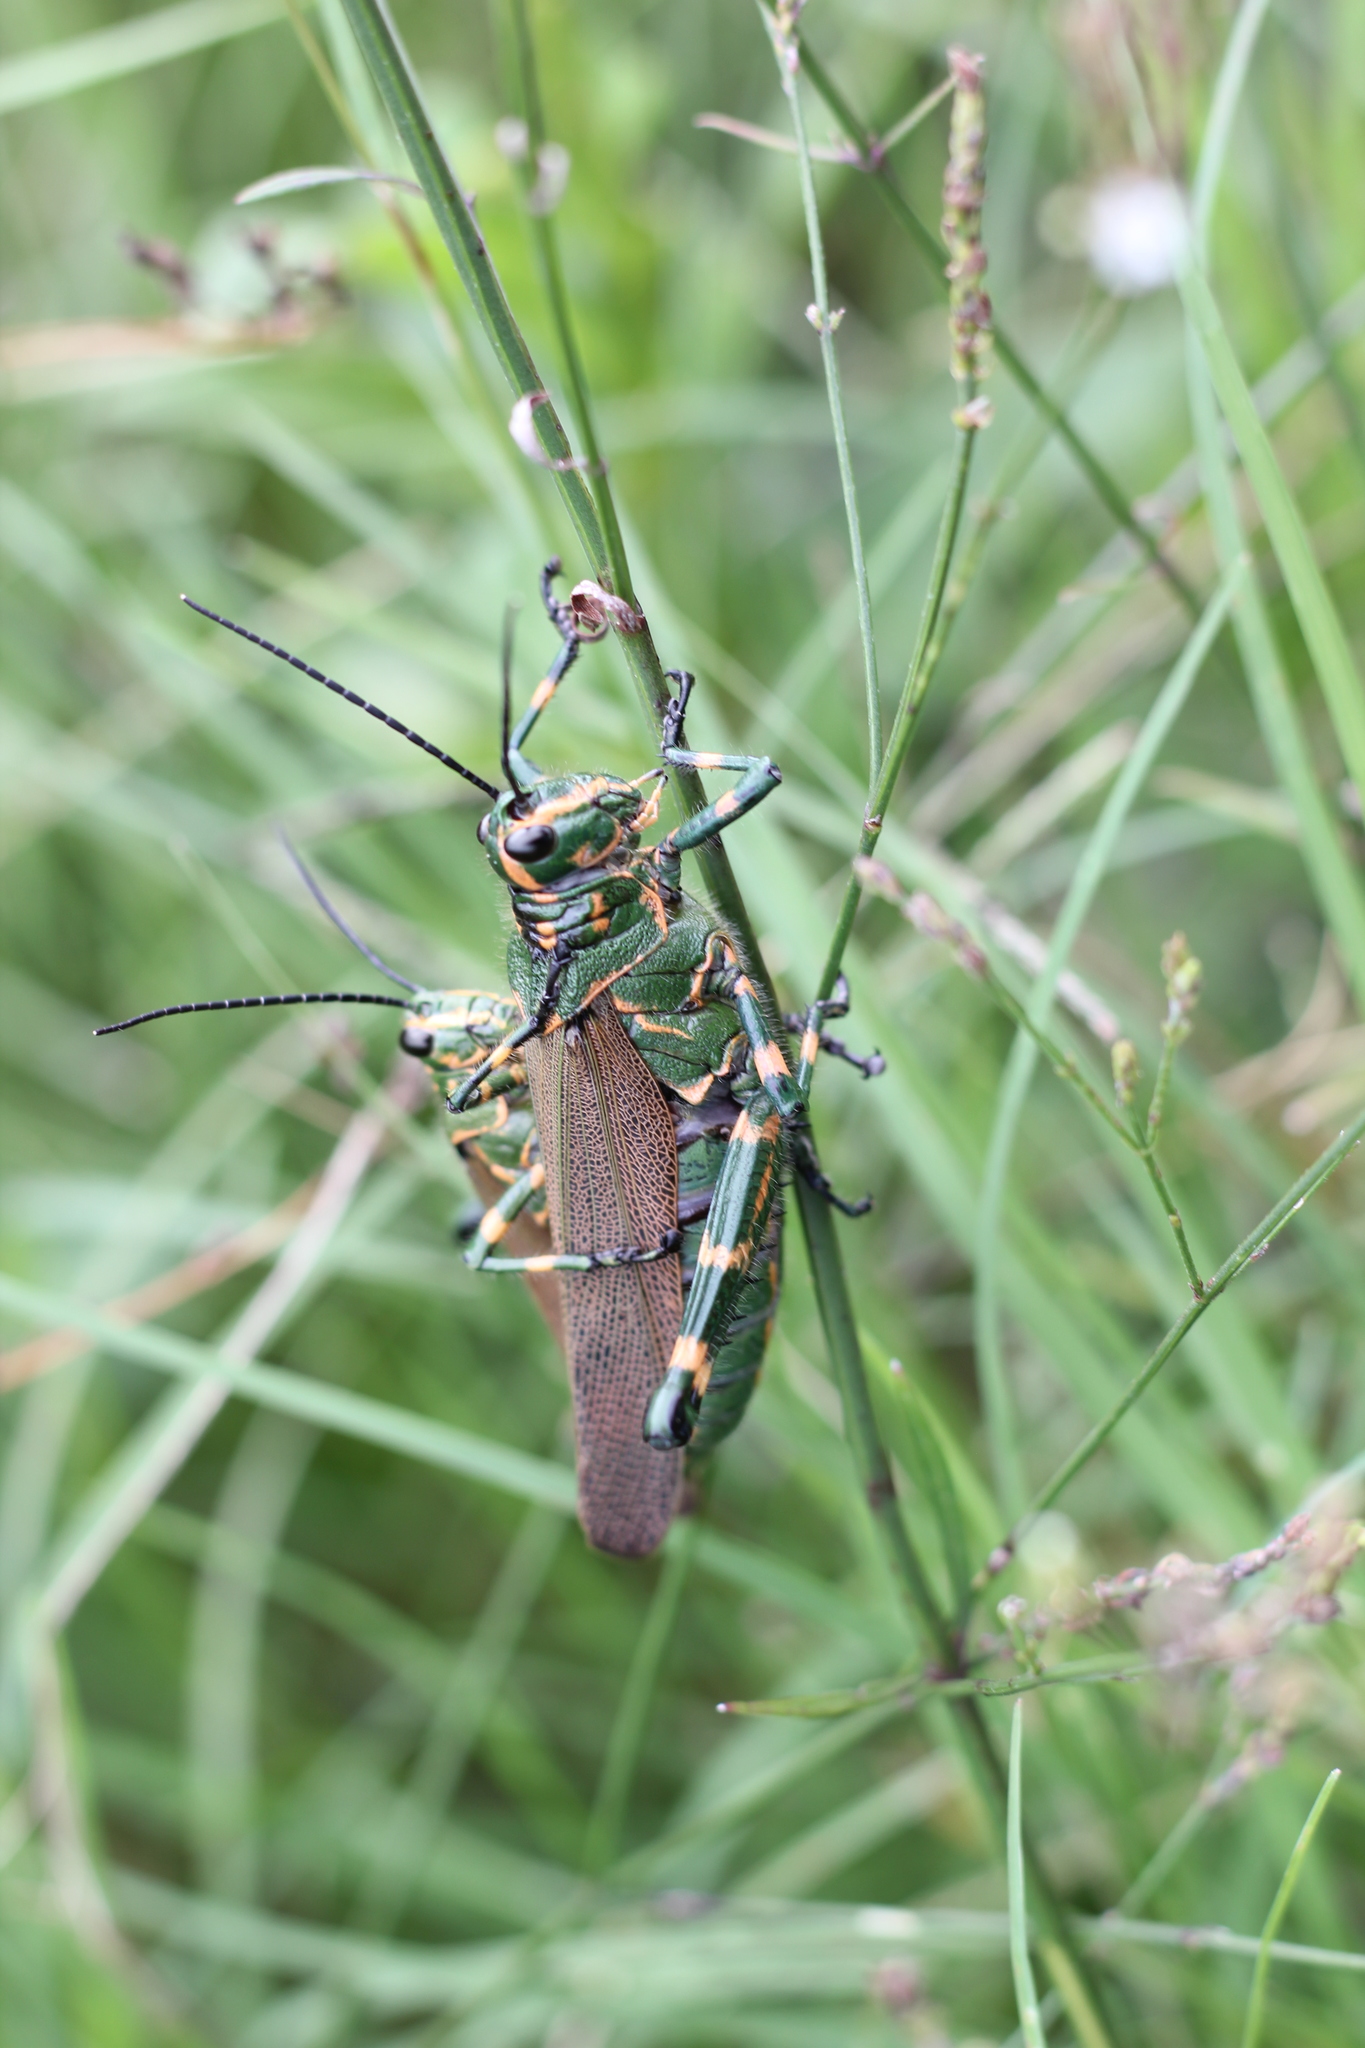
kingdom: Animalia
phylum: Arthropoda
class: Insecta
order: Orthoptera
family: Romaleidae
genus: Chromacris
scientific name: Chromacris speciosa
